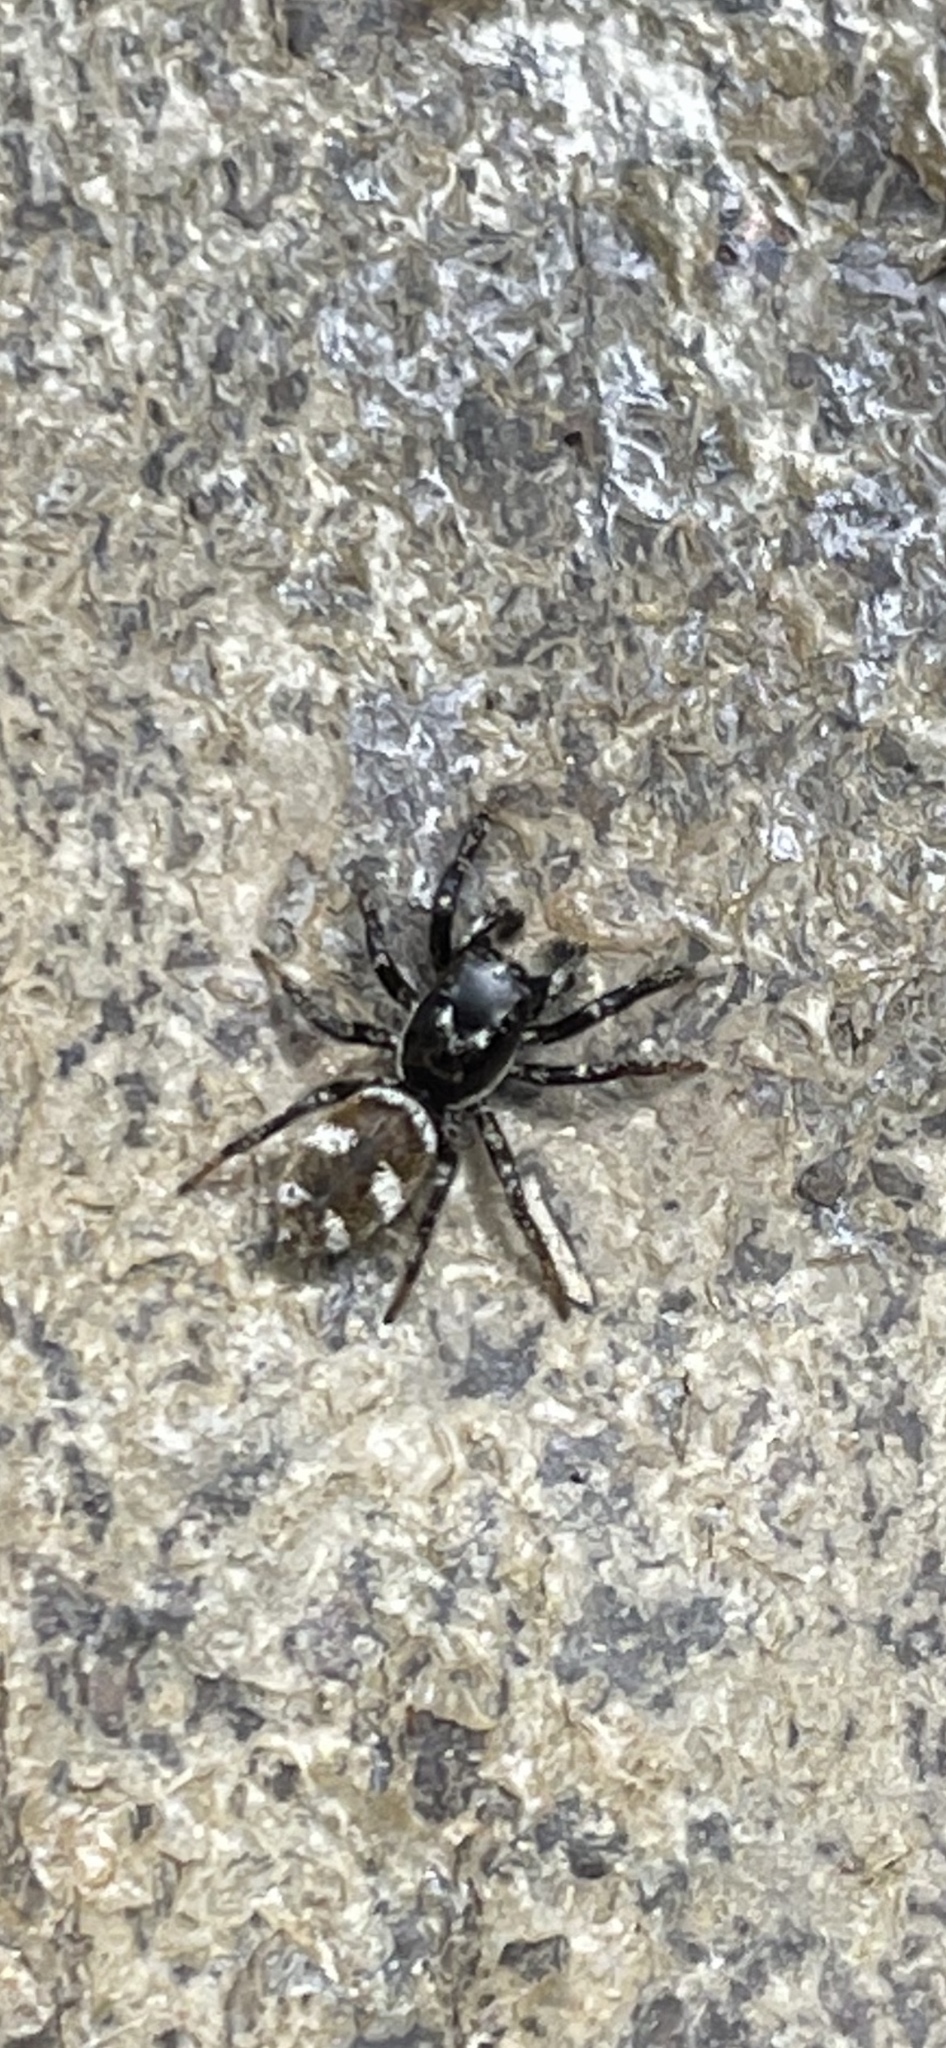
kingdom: Animalia
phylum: Arthropoda
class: Arachnida
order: Araneae
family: Salticidae
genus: Salticus
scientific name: Salticus scenicus
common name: Zebra jumper
